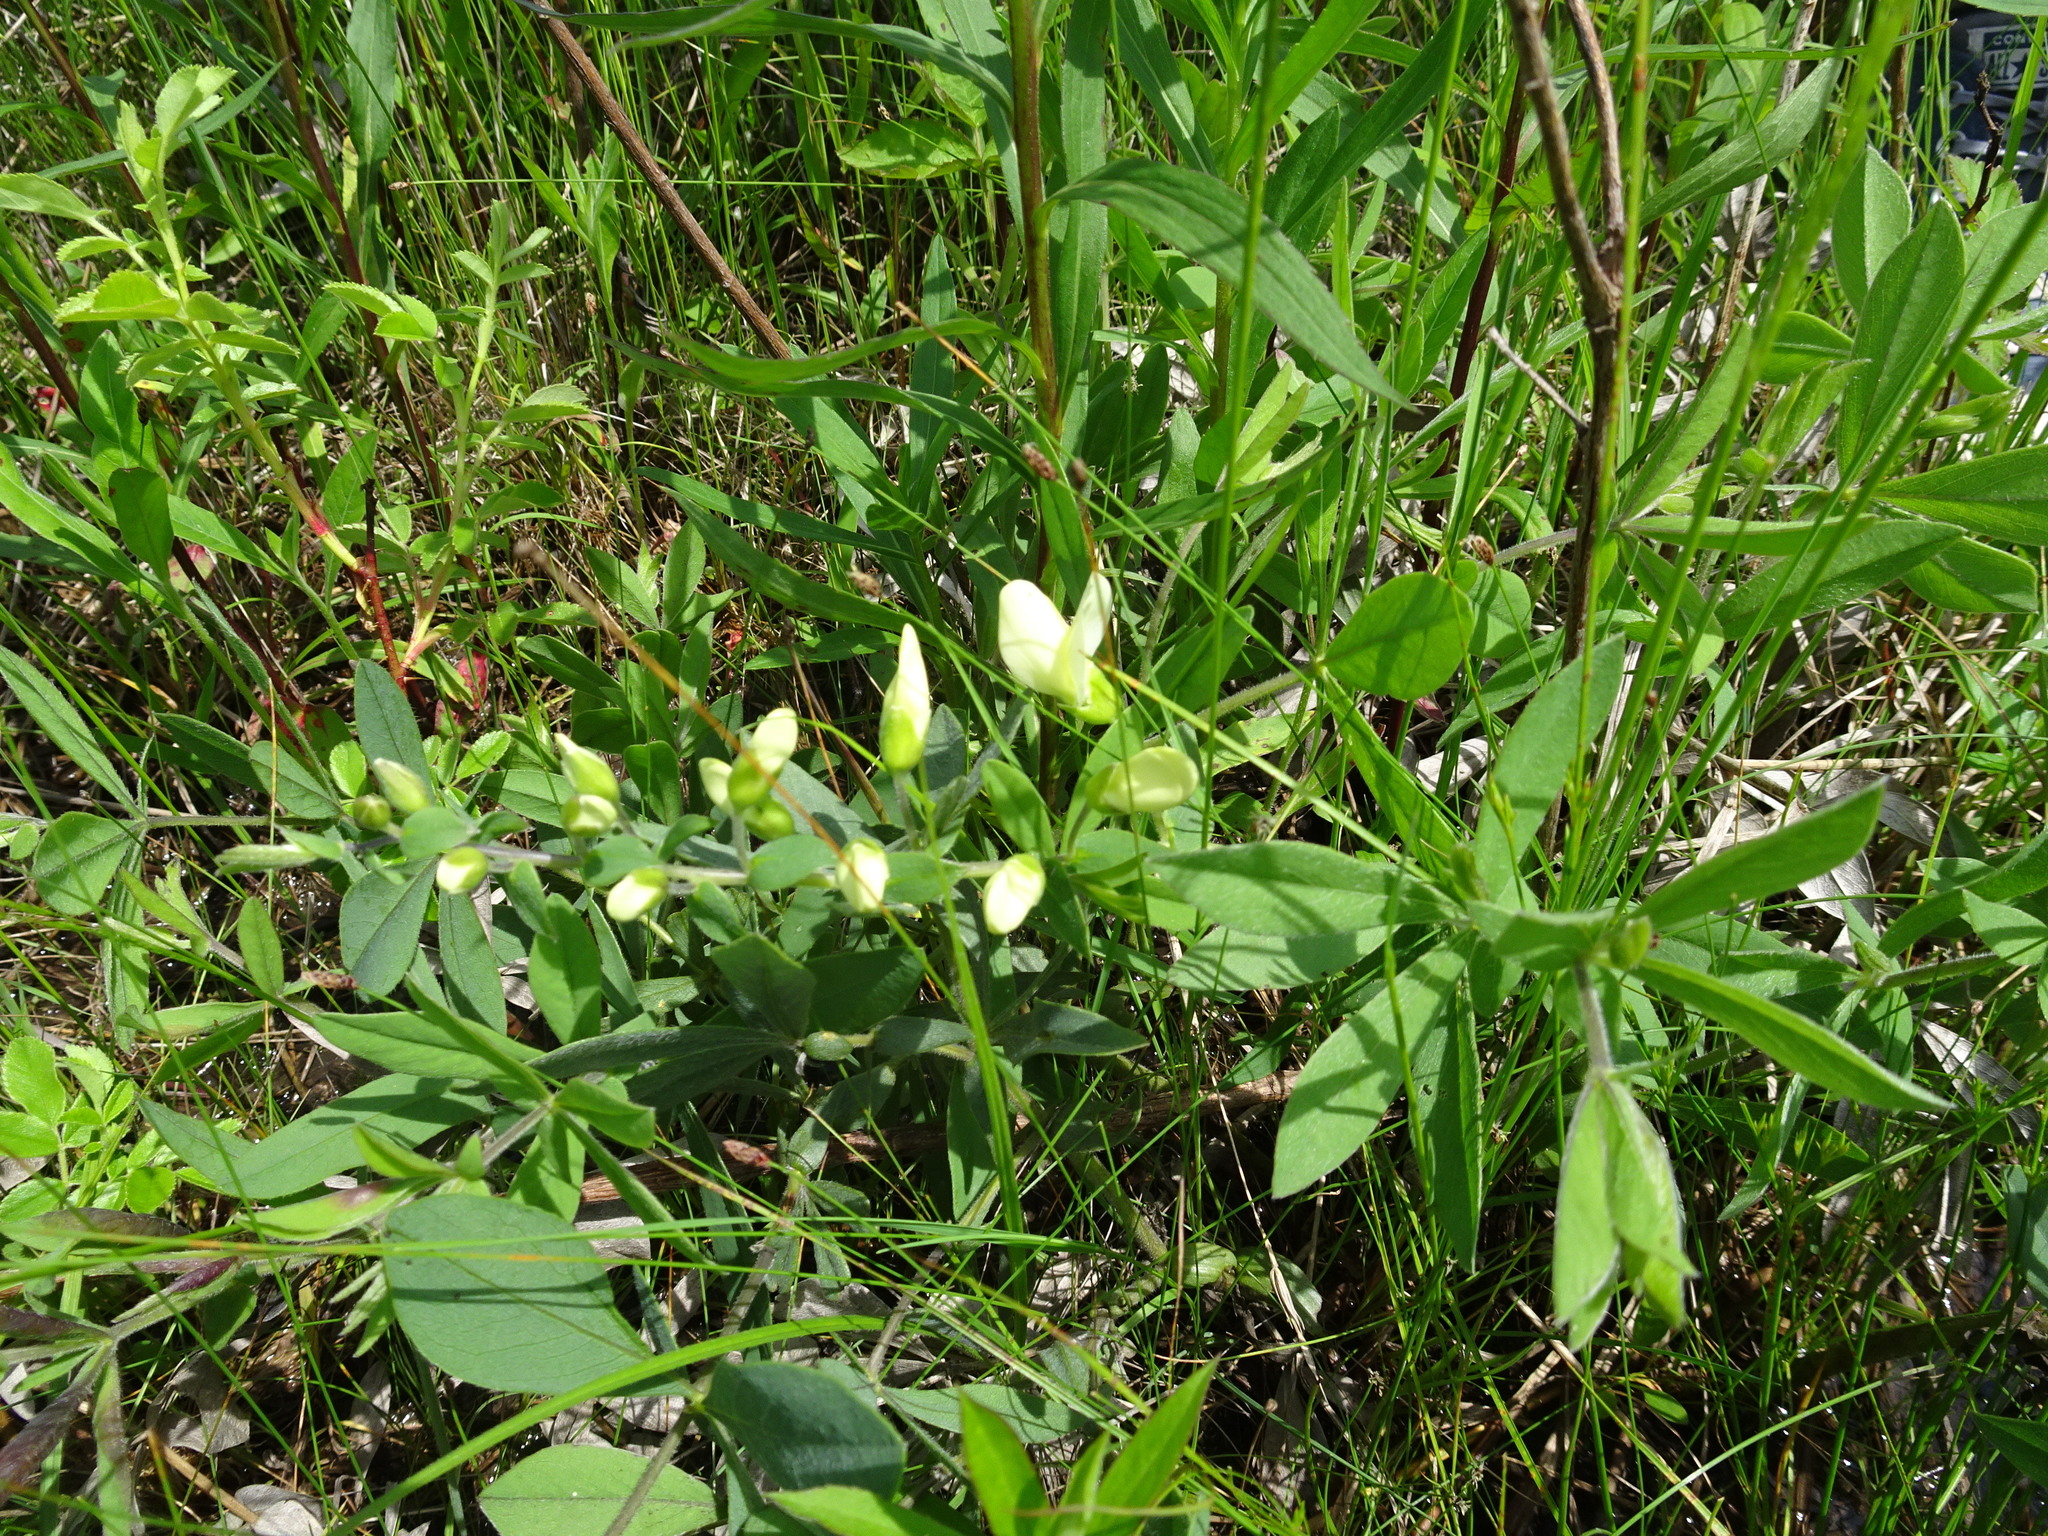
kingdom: Plantae
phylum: Tracheophyta
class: Magnoliopsida
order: Fabales
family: Fabaceae
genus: Baptisia
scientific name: Baptisia bracteata
